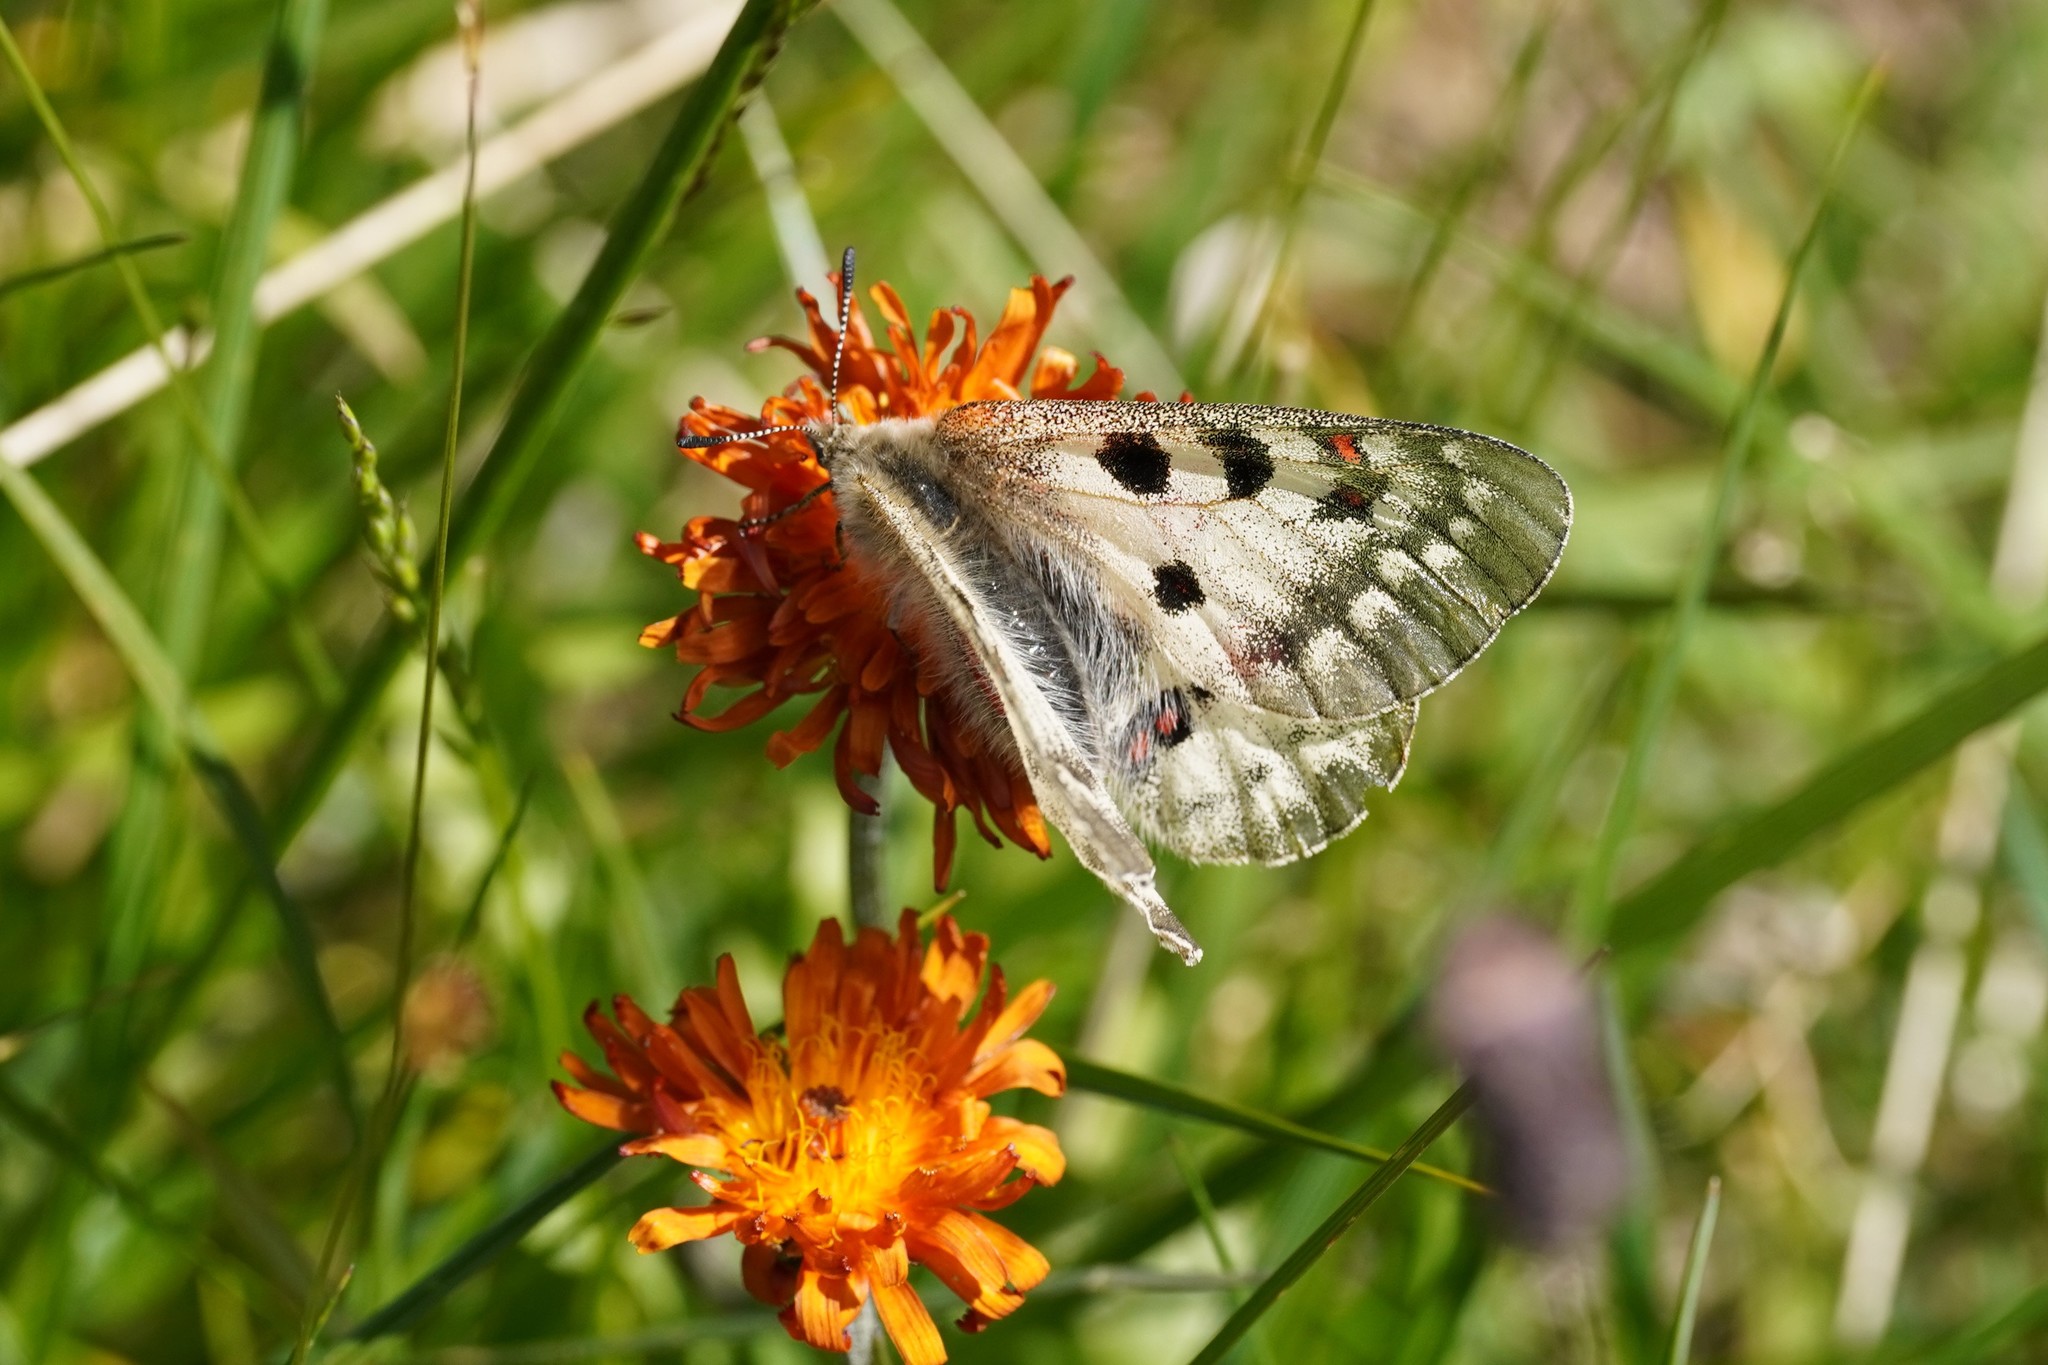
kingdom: Animalia
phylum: Arthropoda
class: Insecta
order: Lepidoptera
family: Papilionidae
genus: Parnassius
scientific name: Parnassius phoebus
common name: Small apollo
